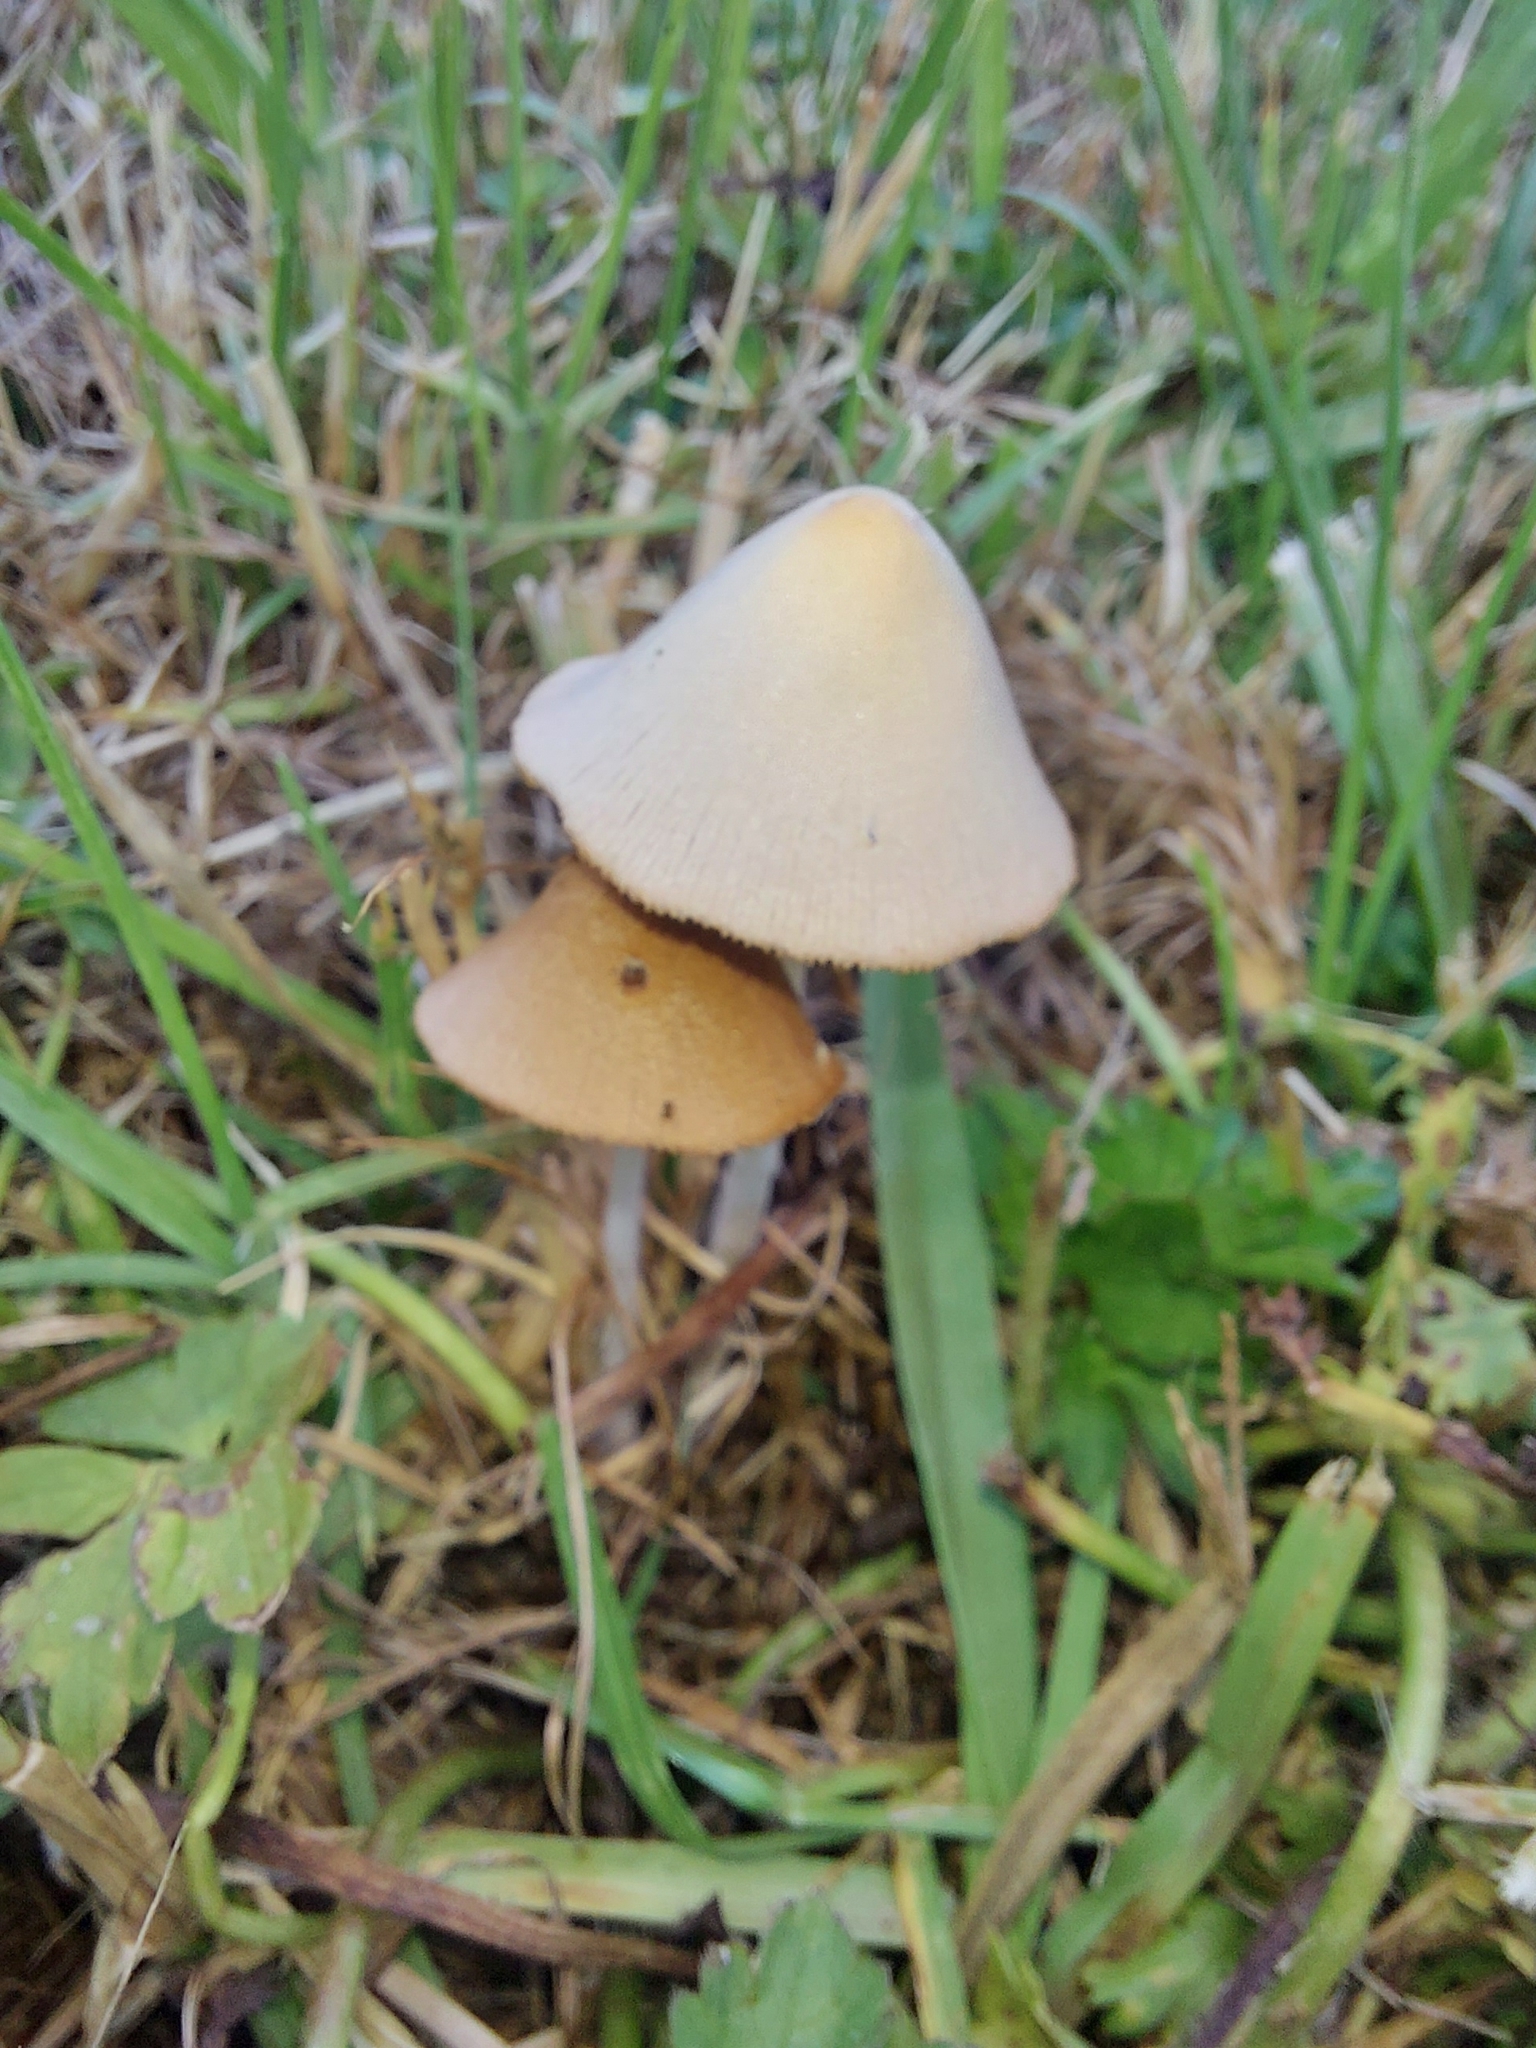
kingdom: Fungi
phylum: Basidiomycota
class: Agaricomycetes
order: Agaricales
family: Bolbitiaceae
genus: Conocybe
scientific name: Conocybe apala
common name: Milky conecap
